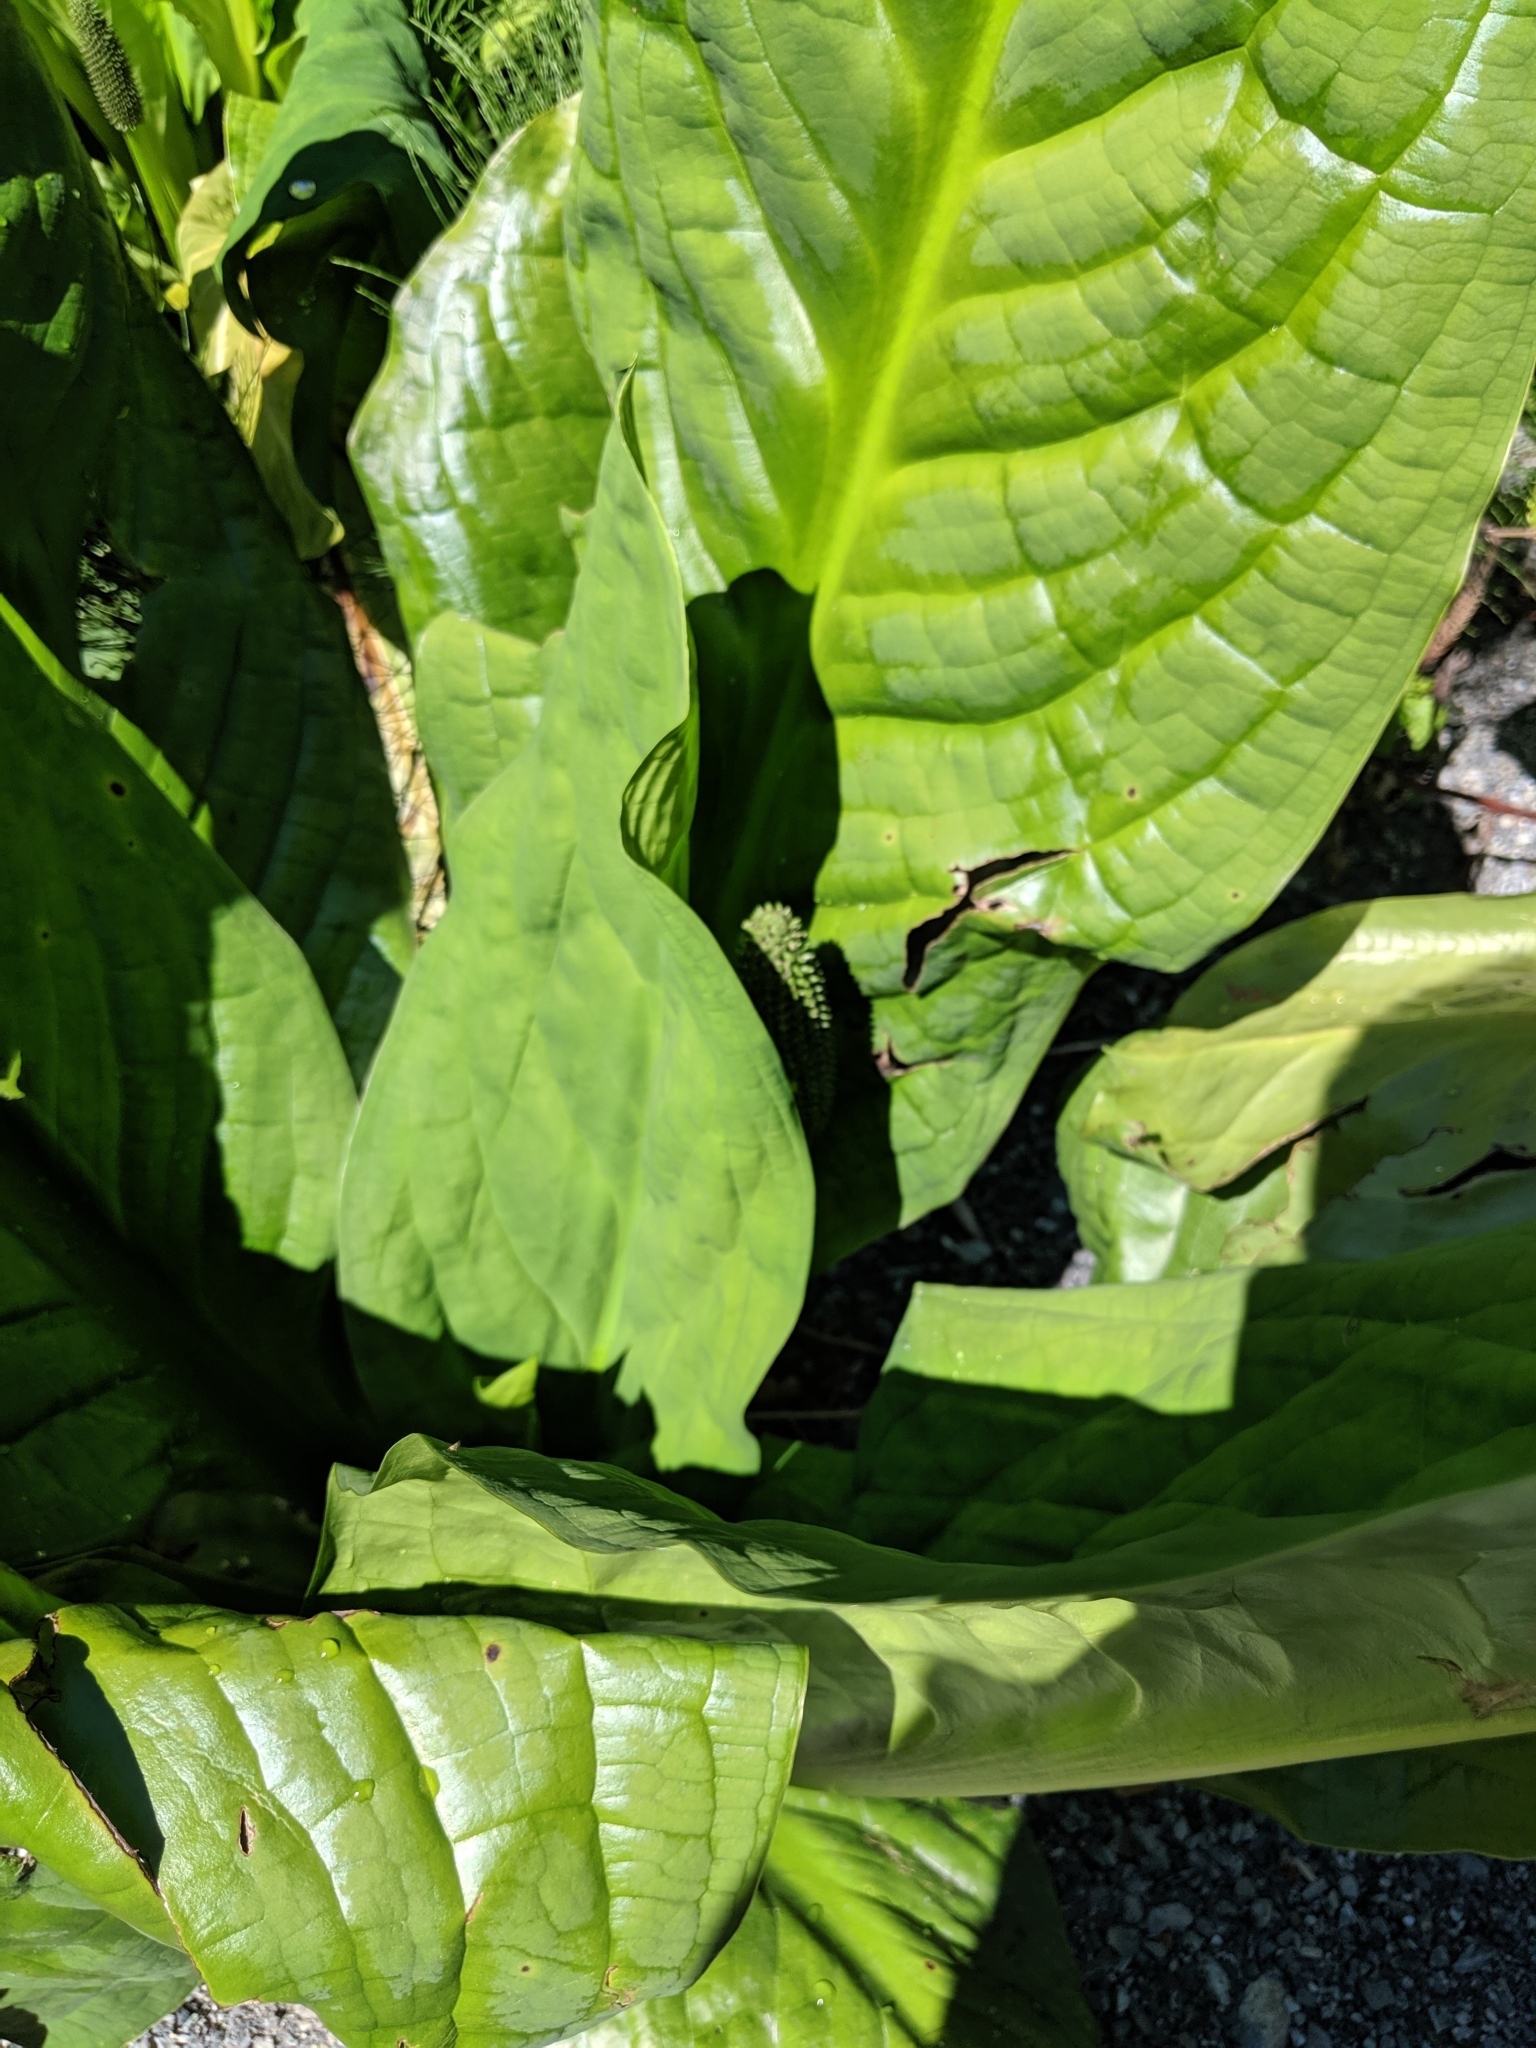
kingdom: Plantae
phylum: Tracheophyta
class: Liliopsida
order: Alismatales
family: Araceae
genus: Lysichiton
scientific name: Lysichiton americanus
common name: American skunk cabbage
